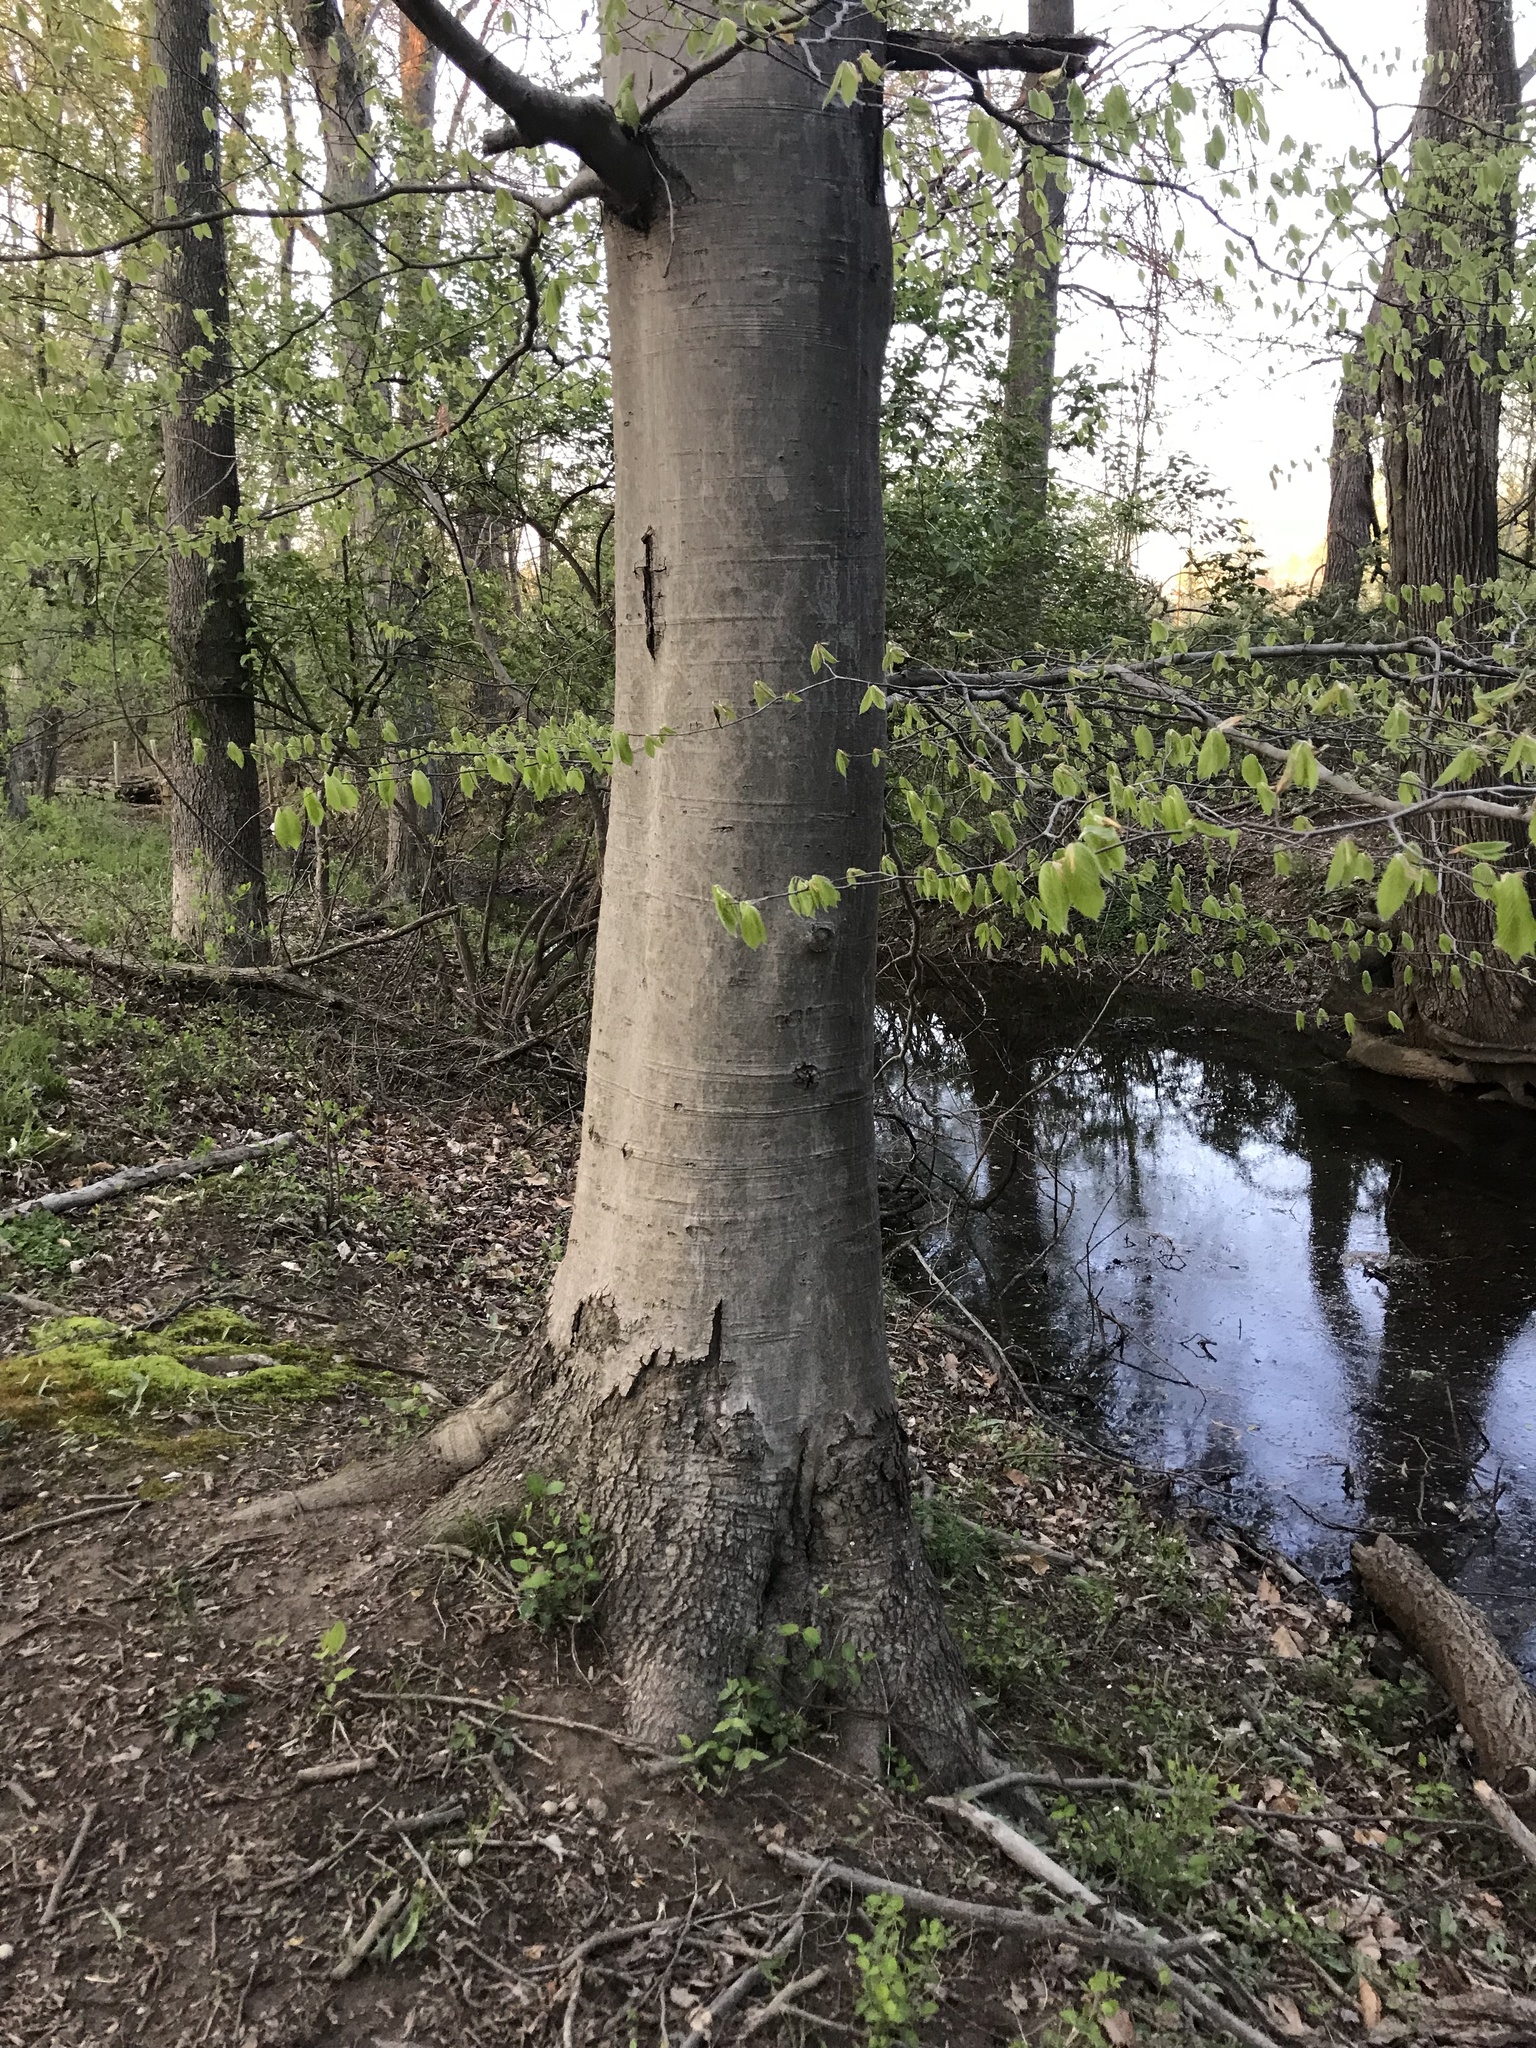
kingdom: Plantae
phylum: Tracheophyta
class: Magnoliopsida
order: Fagales
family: Fagaceae
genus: Fagus
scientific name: Fagus grandifolia
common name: American beech
